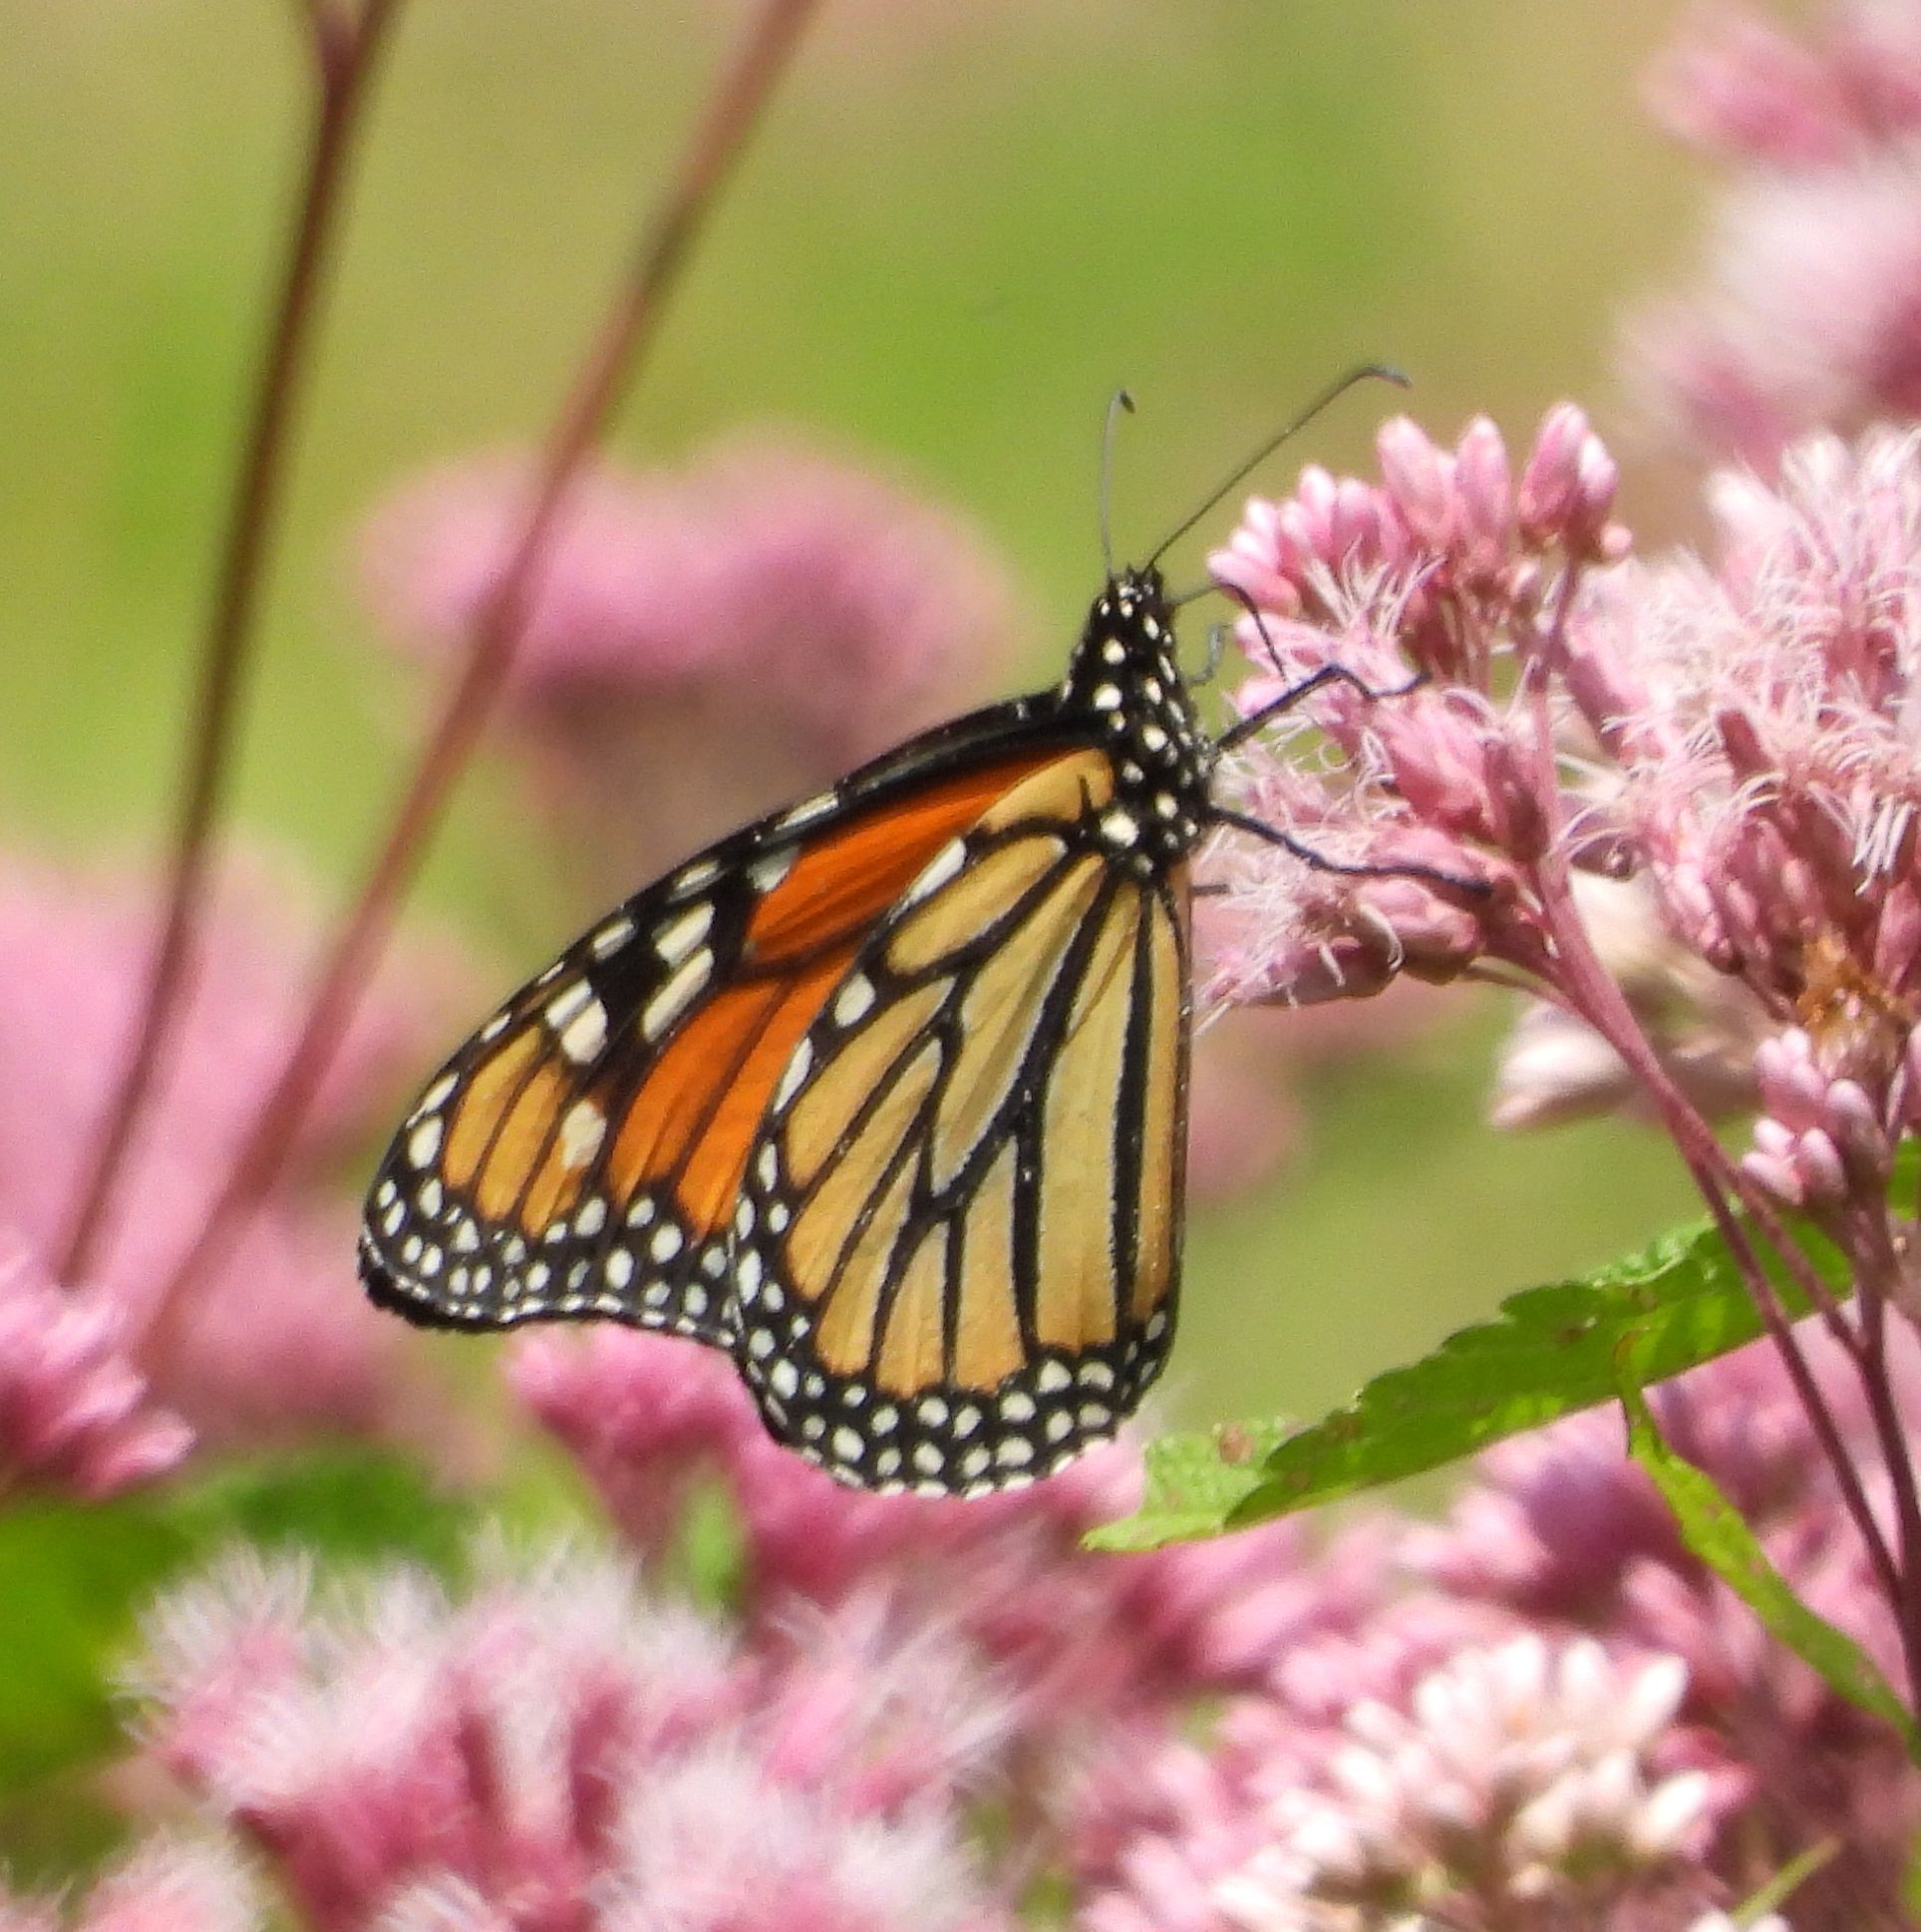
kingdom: Animalia
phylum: Arthropoda
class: Insecta
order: Lepidoptera
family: Nymphalidae
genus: Danaus
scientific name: Danaus plexippus
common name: Monarch
